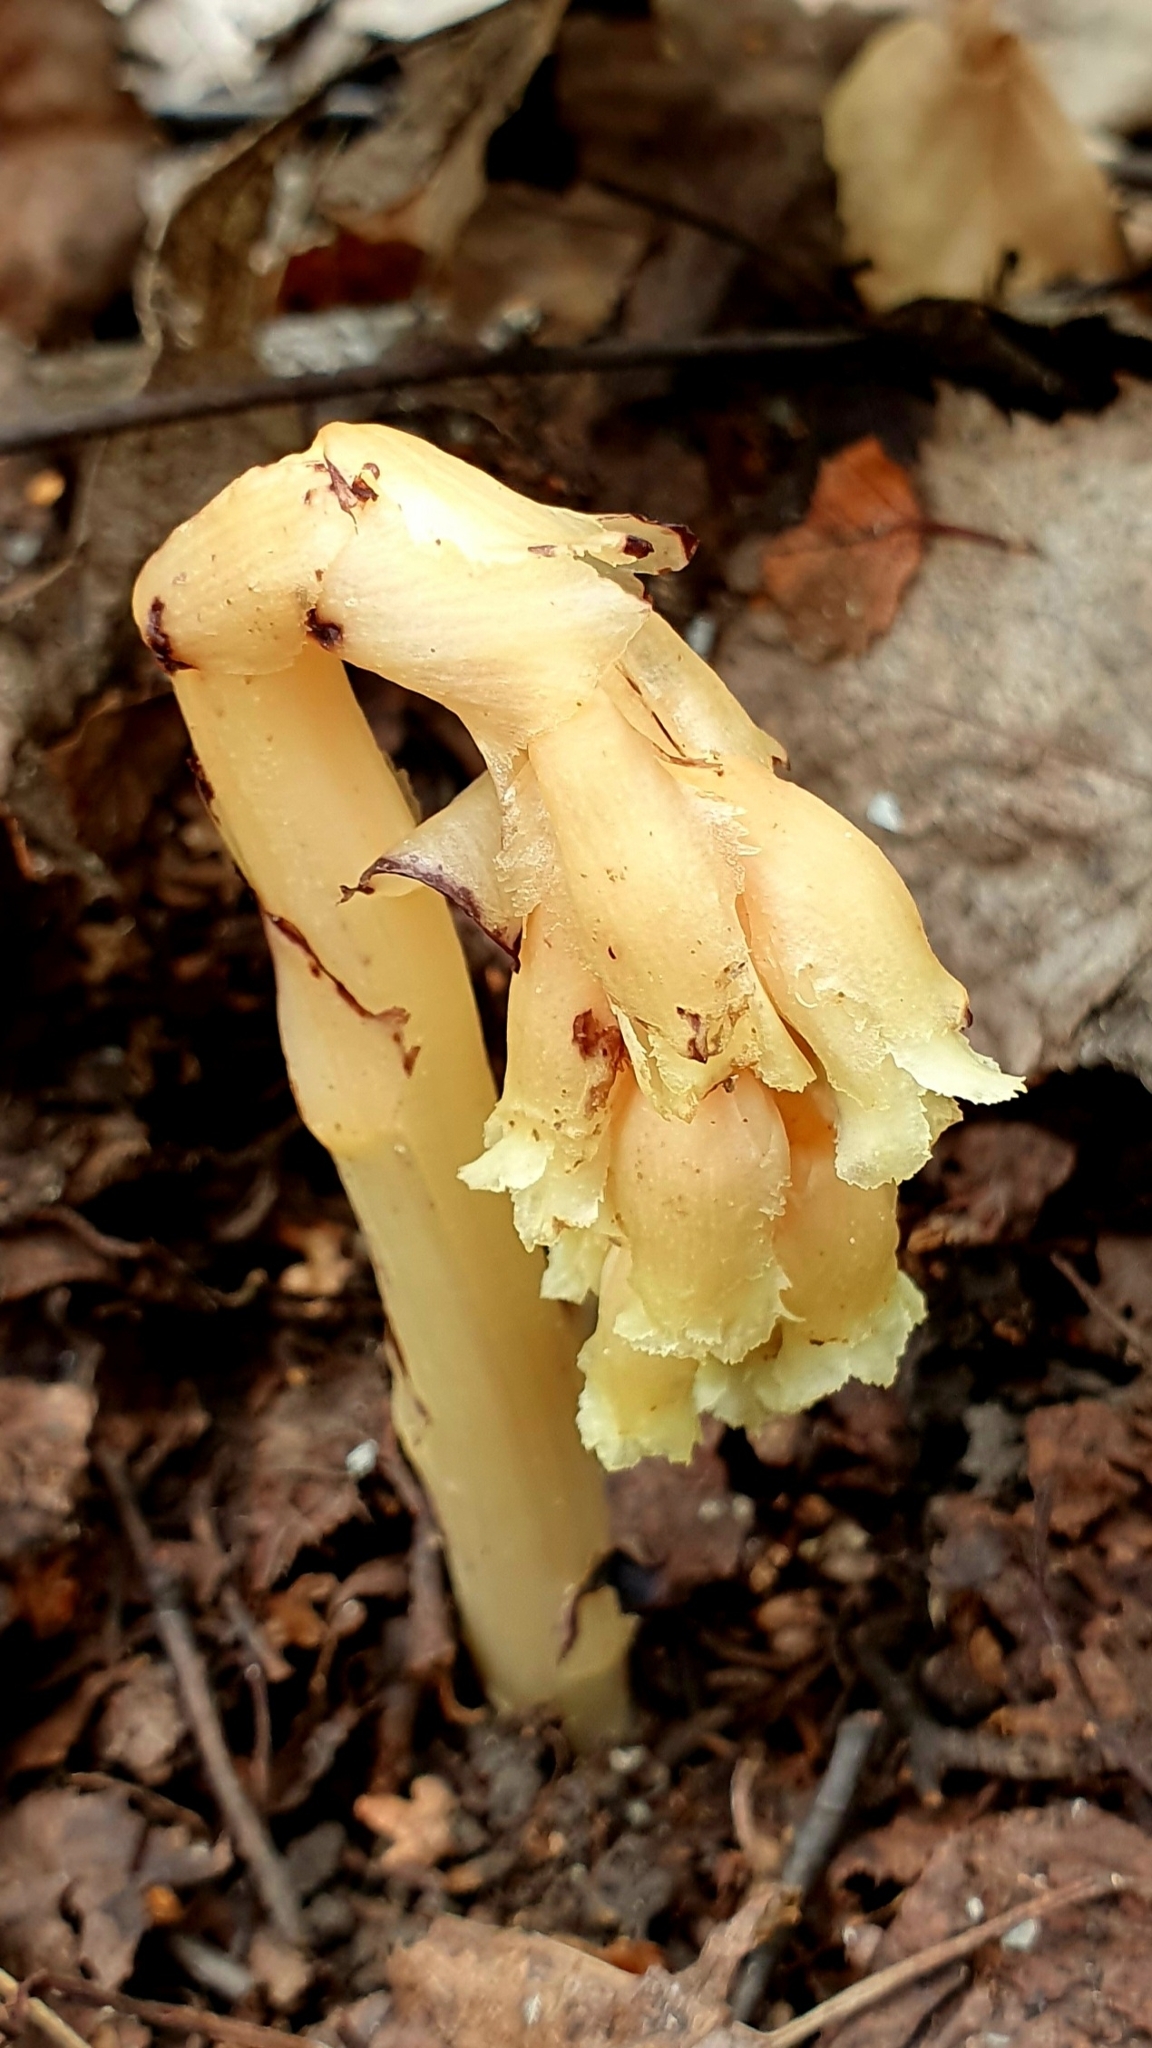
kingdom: Plantae
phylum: Tracheophyta
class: Magnoliopsida
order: Ericales
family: Ericaceae
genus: Hypopitys
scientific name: Hypopitys monotropa
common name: Yellow bird's-nest
